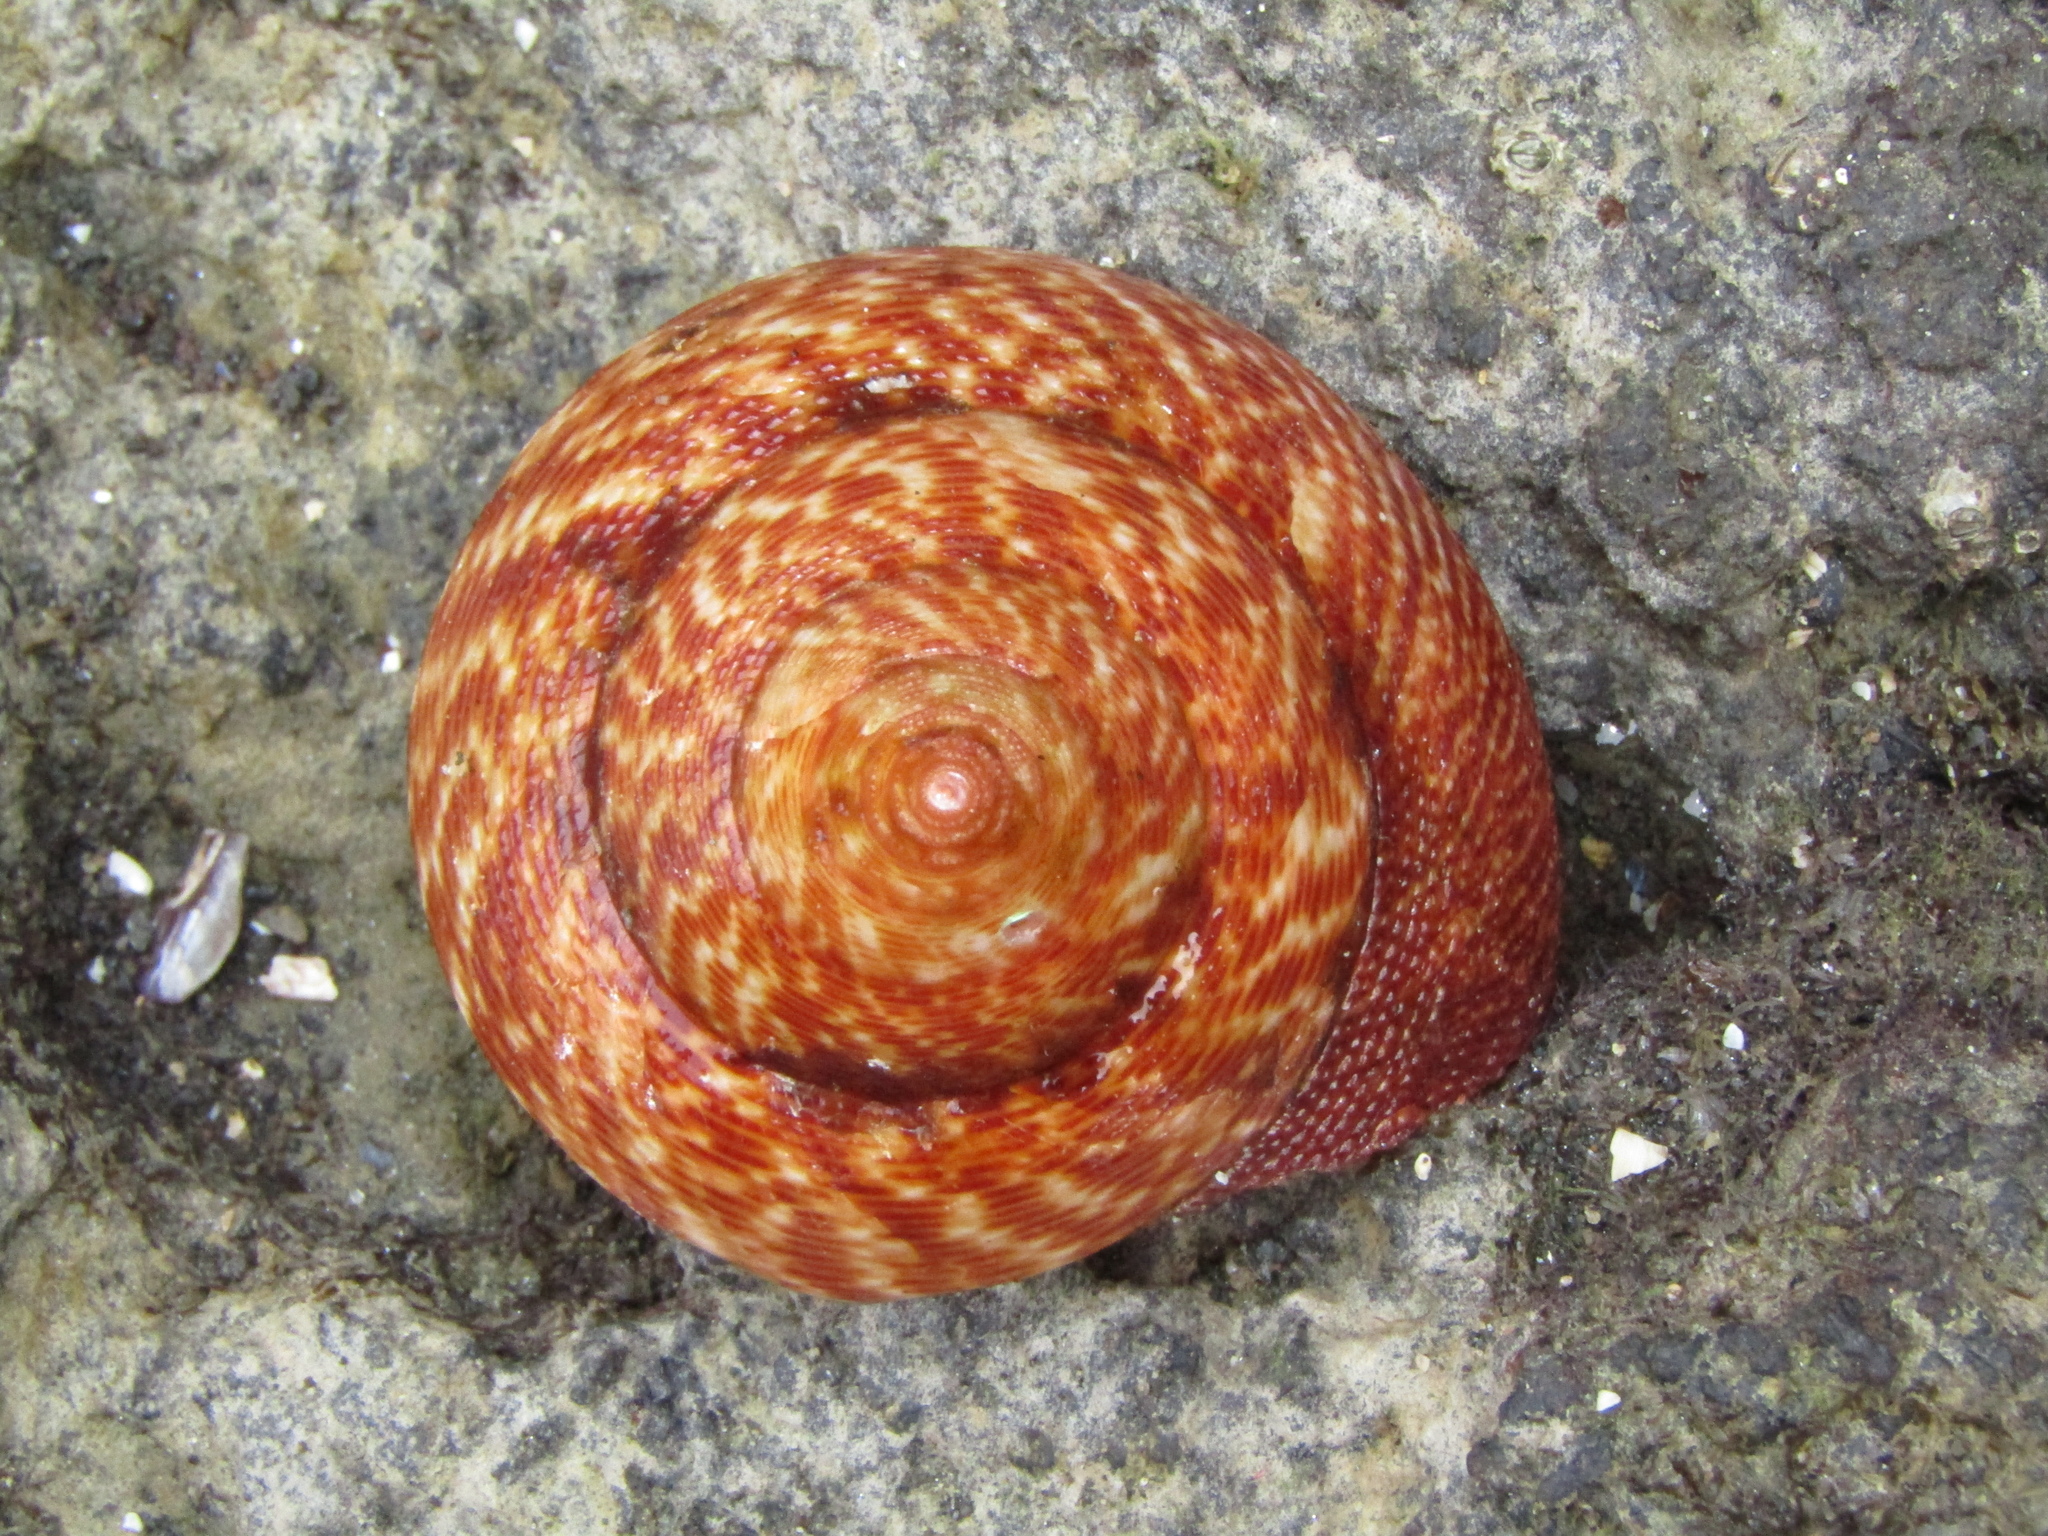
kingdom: Animalia
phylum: Mollusca
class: Gastropoda
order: Trochida
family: Calliostomatidae
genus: Maurea
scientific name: Maurea tigris
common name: Tiger maurea
